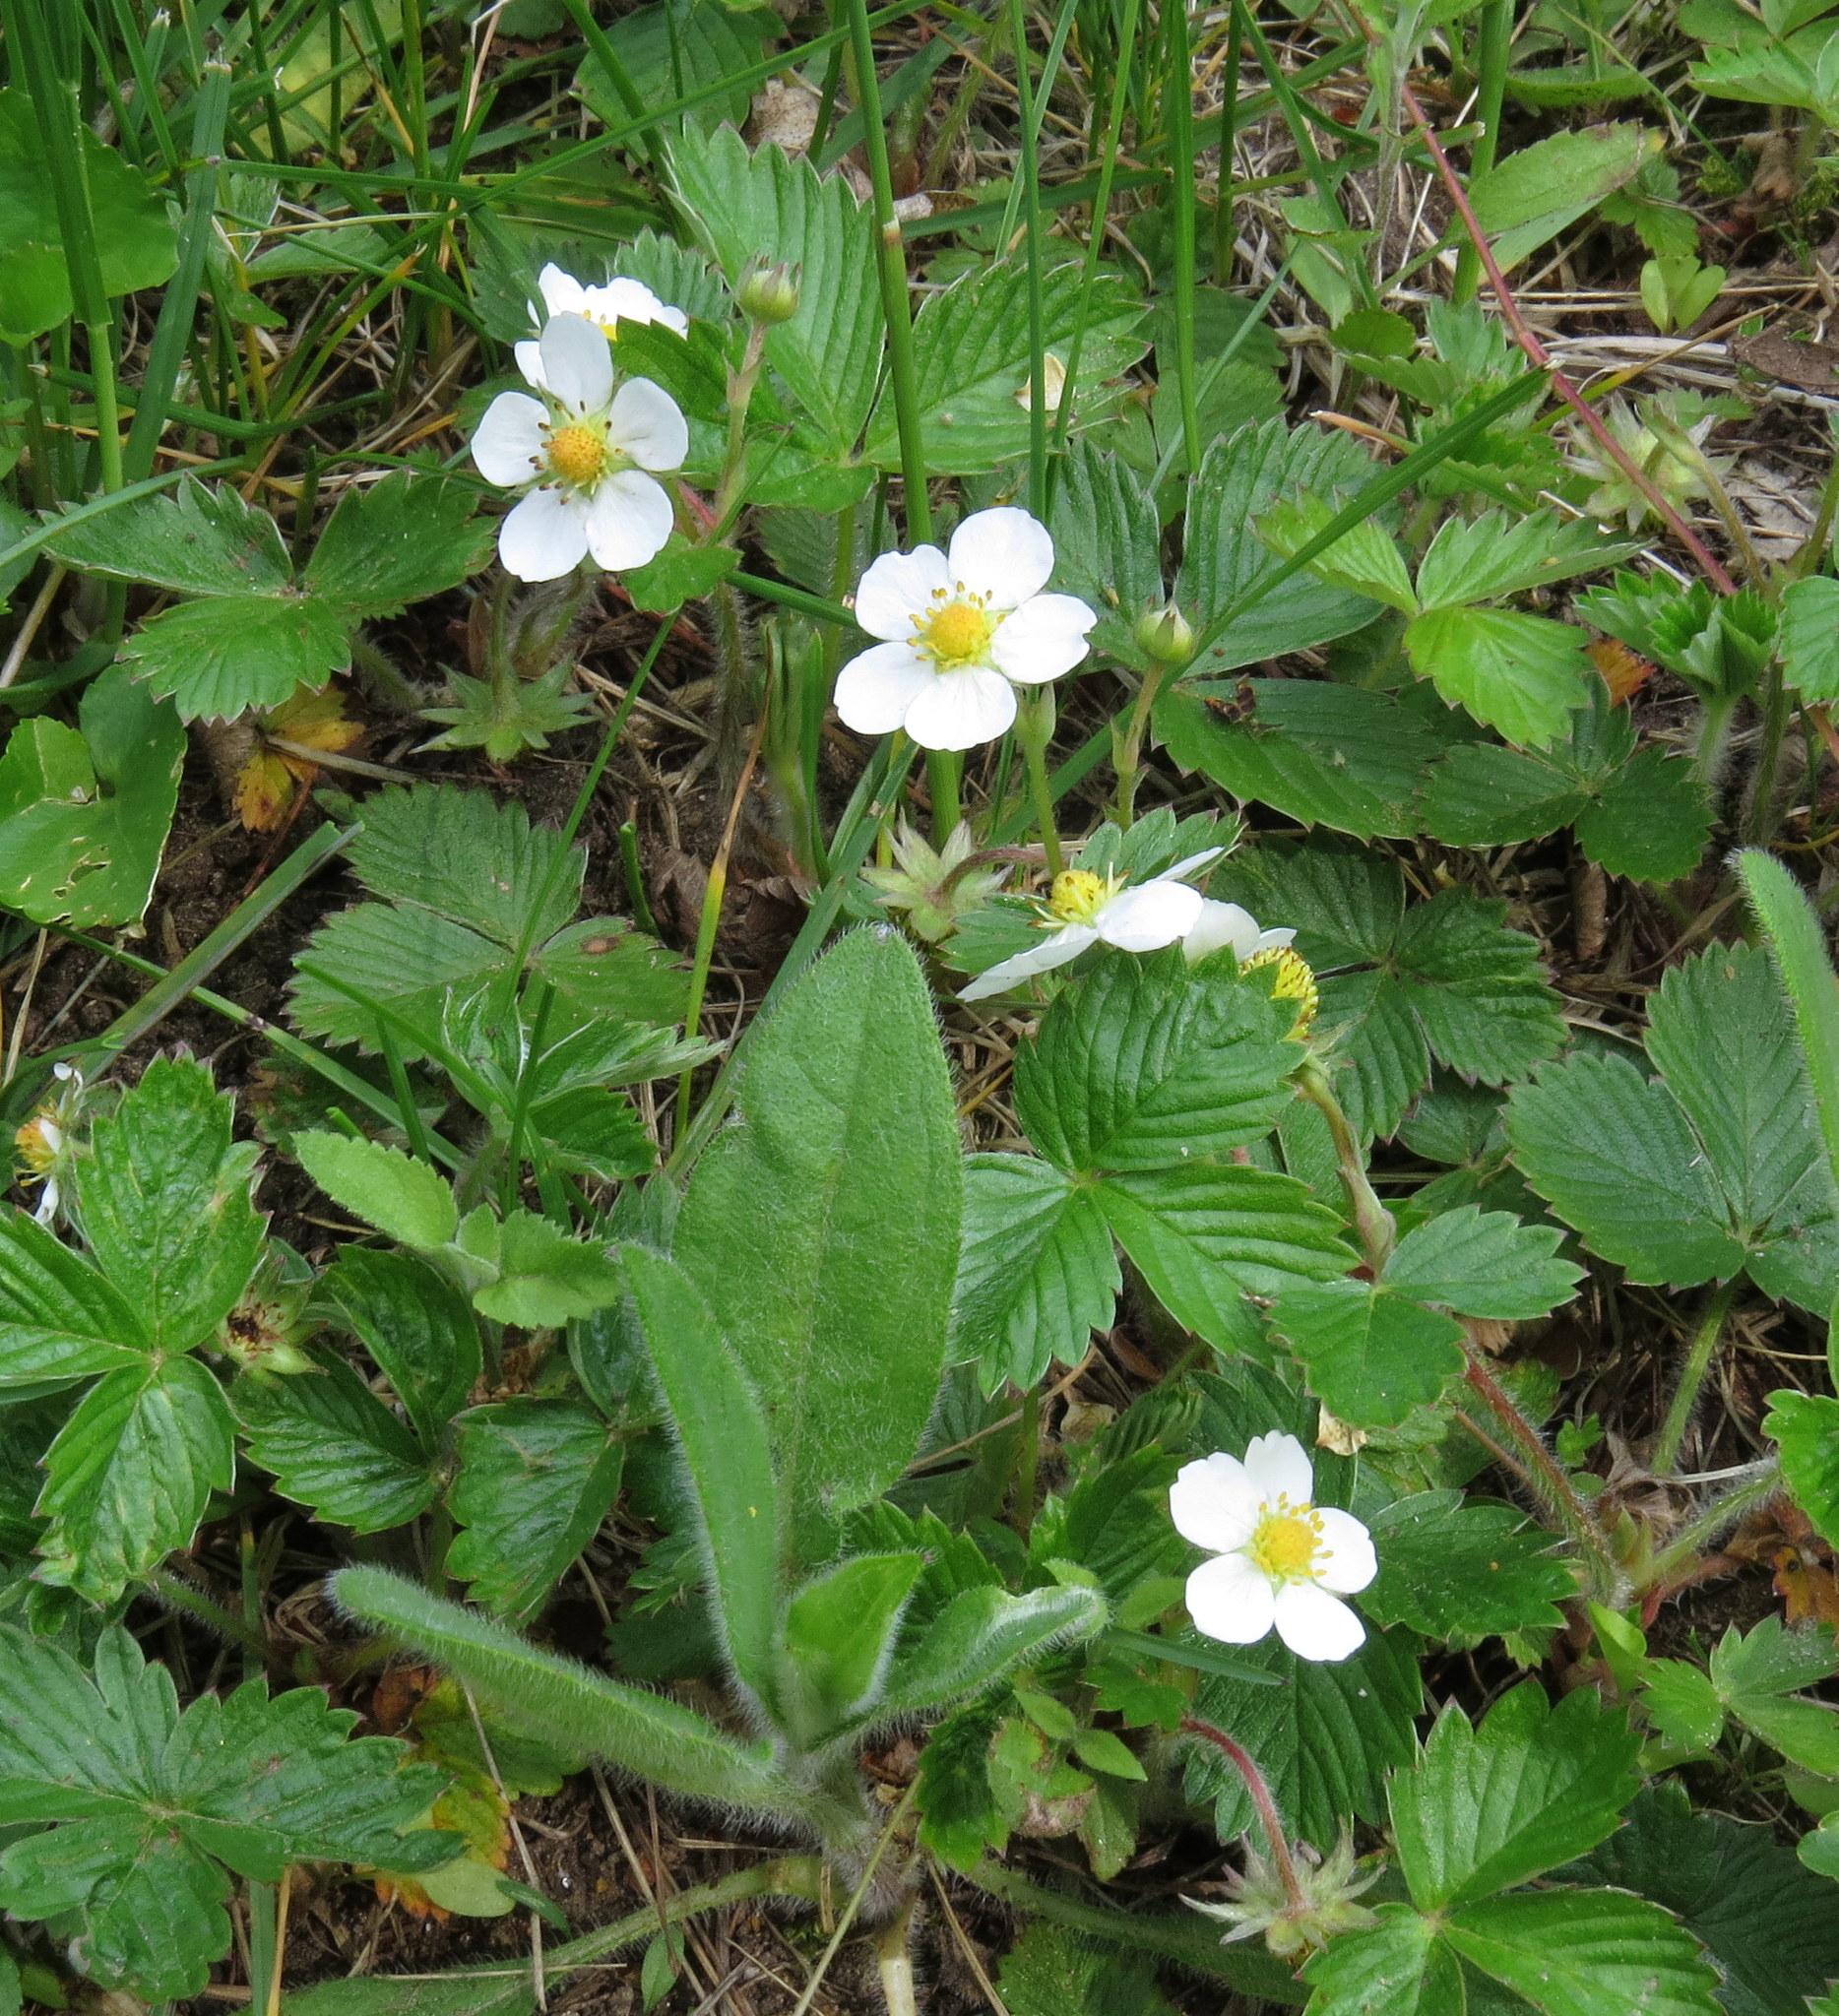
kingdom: Plantae
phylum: Tracheophyta
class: Magnoliopsida
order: Rosales
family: Rosaceae
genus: Fragaria
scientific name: Fragaria vesca
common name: Wild strawberry
